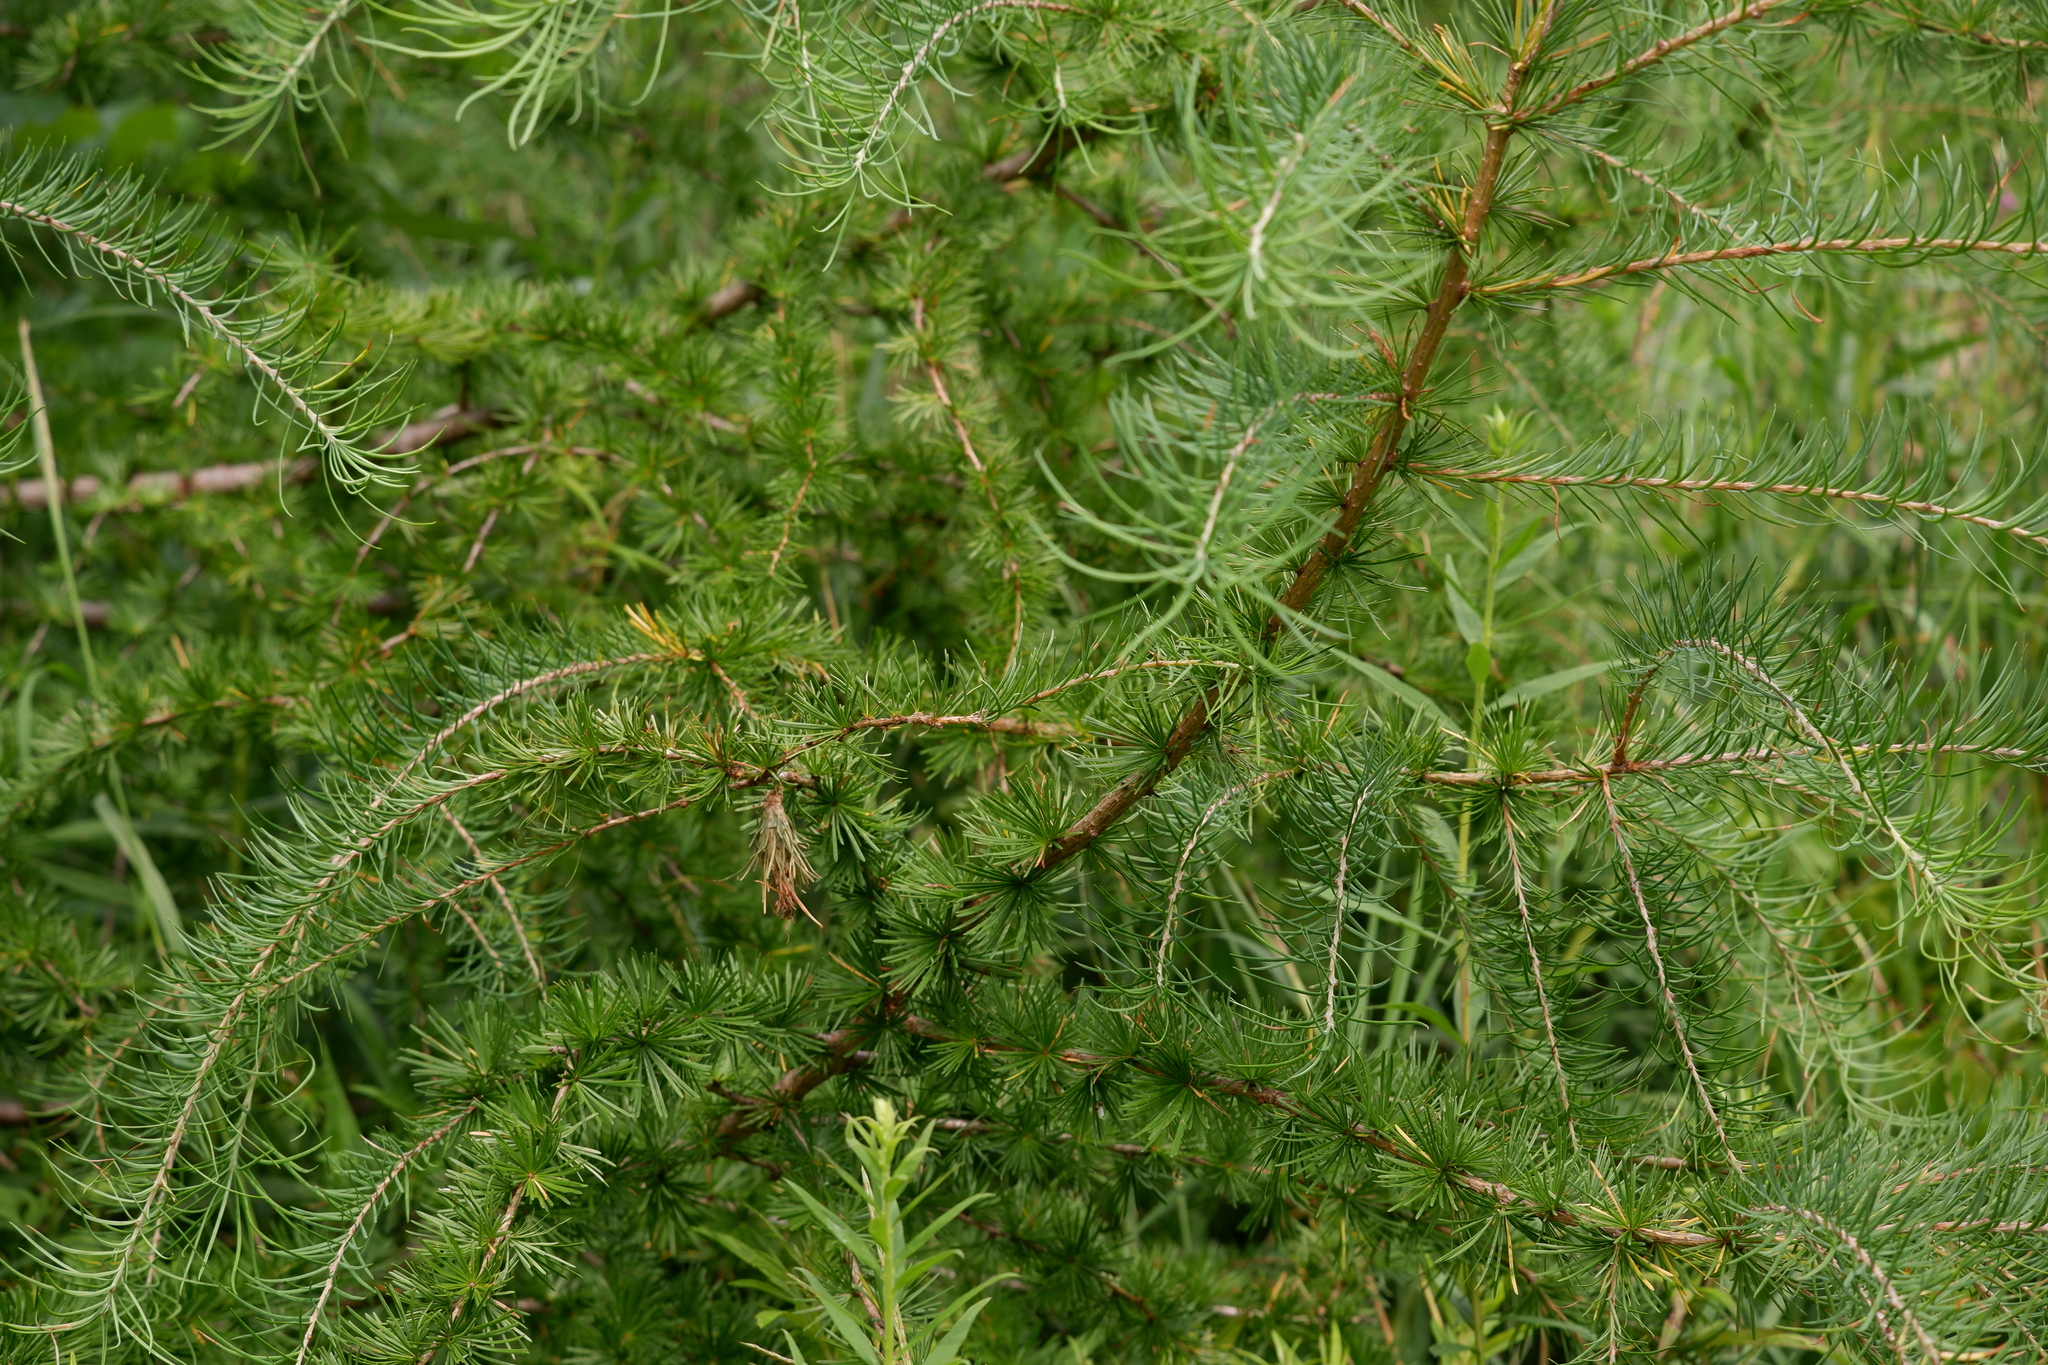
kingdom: Plantae
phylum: Tracheophyta
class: Pinopsida
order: Pinales
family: Pinaceae
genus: Larix
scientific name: Larix laricina
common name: American larch
